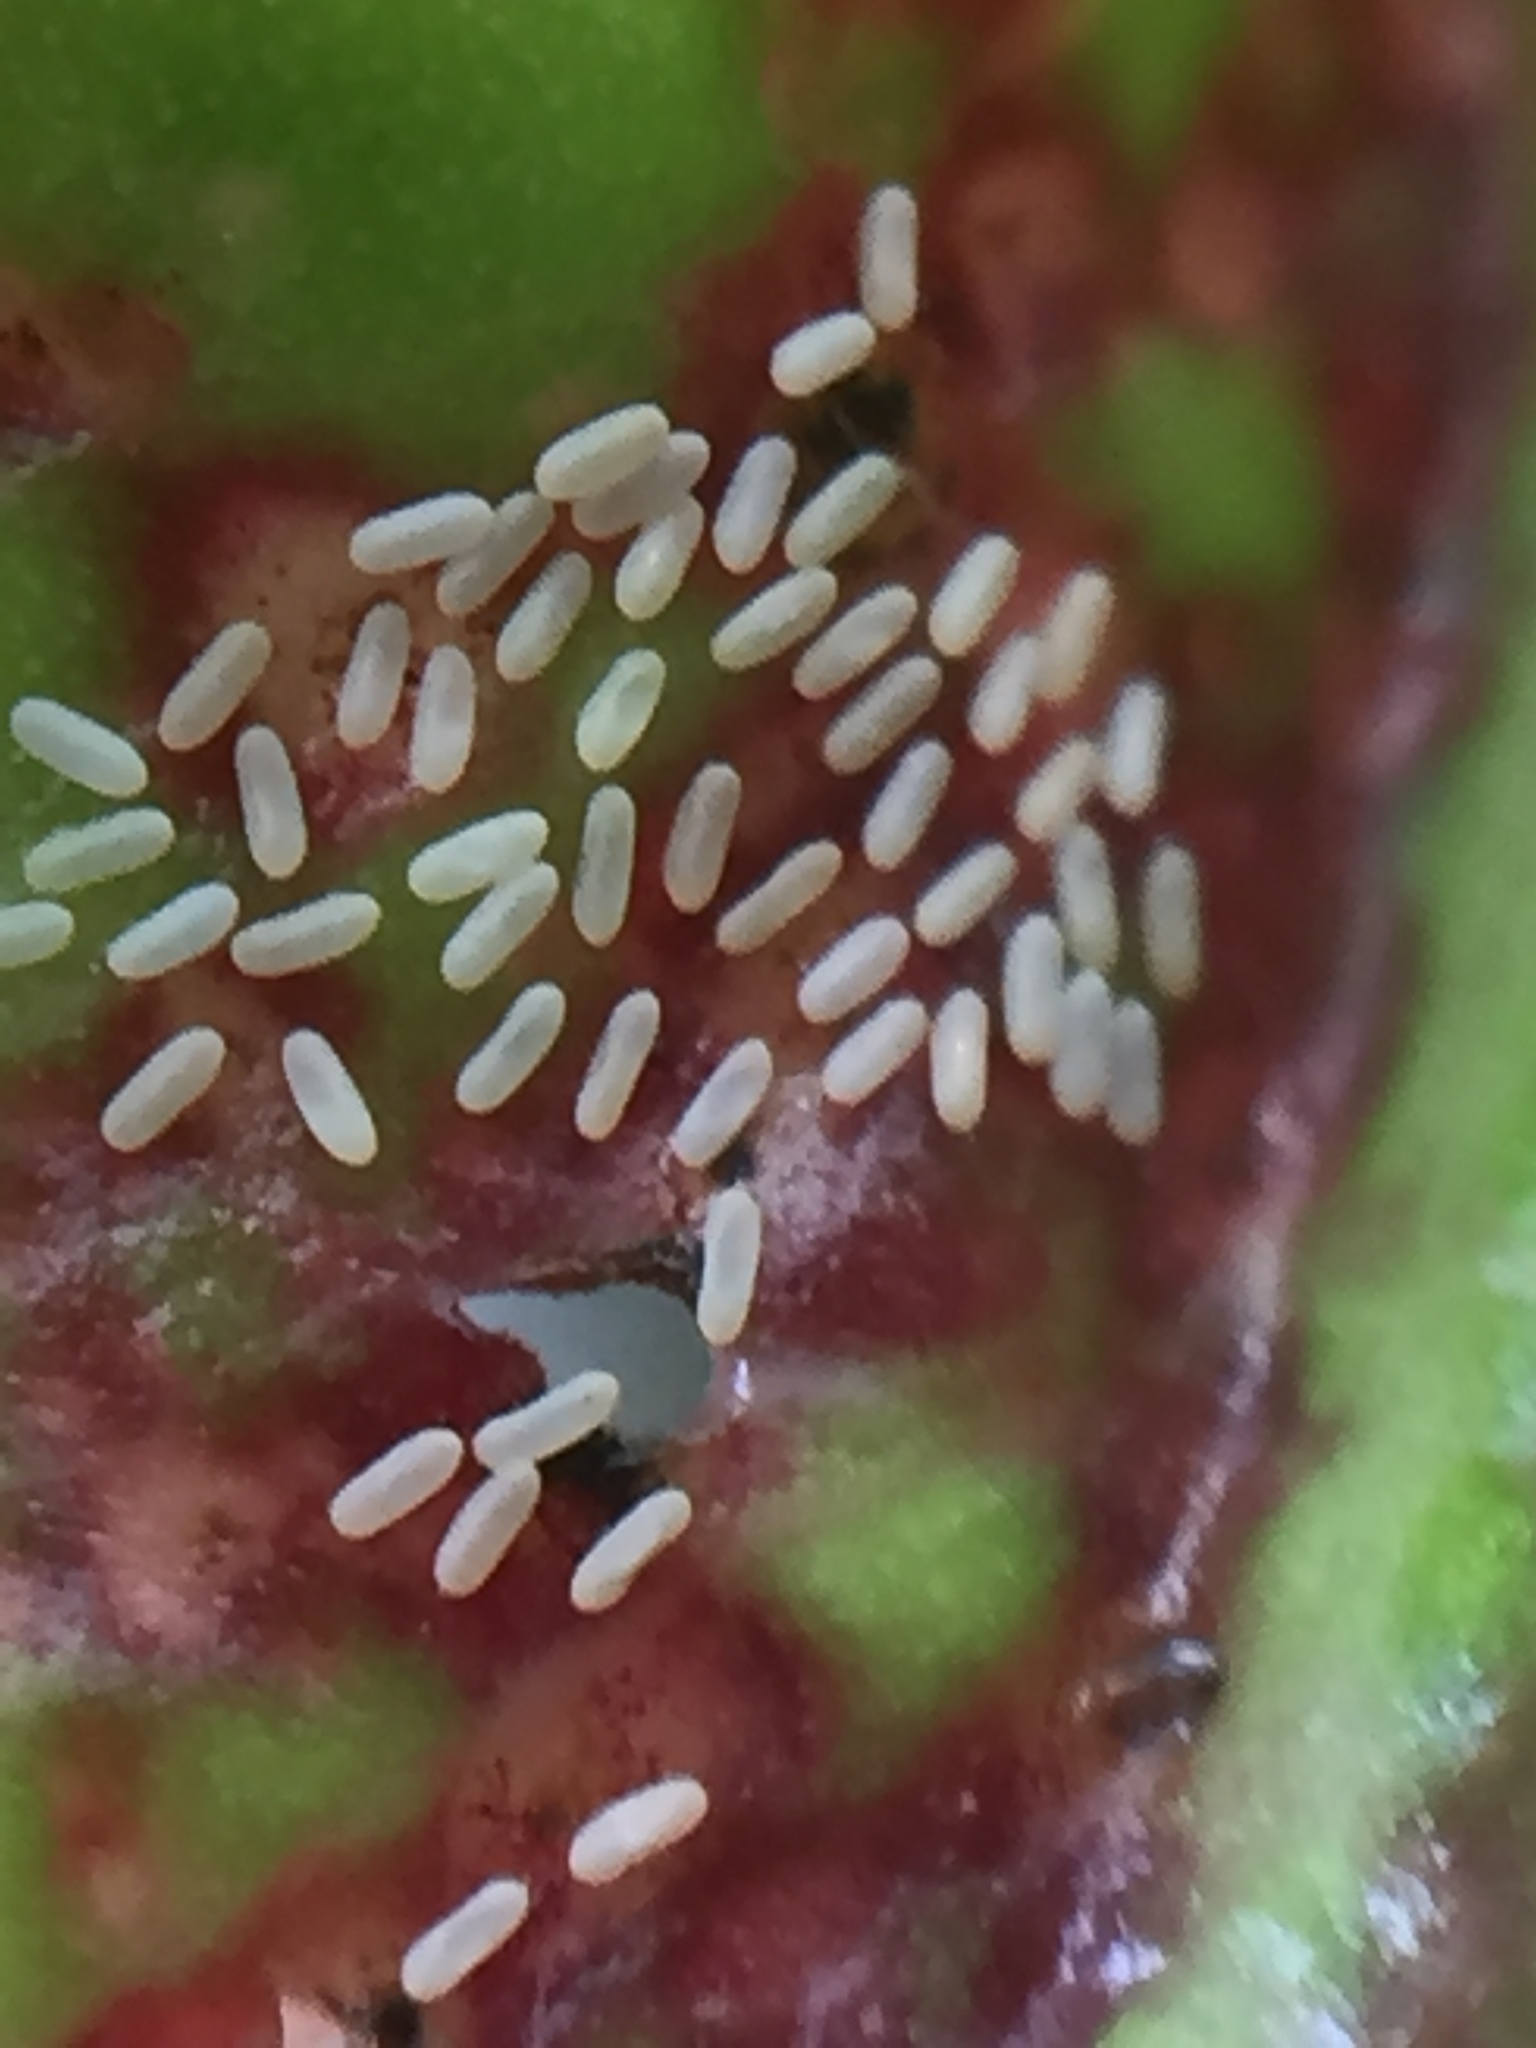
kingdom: Animalia
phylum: Arthropoda
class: Insecta
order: Thysanoptera
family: Phlaeothripidae
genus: Gynaikothrips
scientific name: Gynaikothrips ficorum
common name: Cuban laurel thrips
